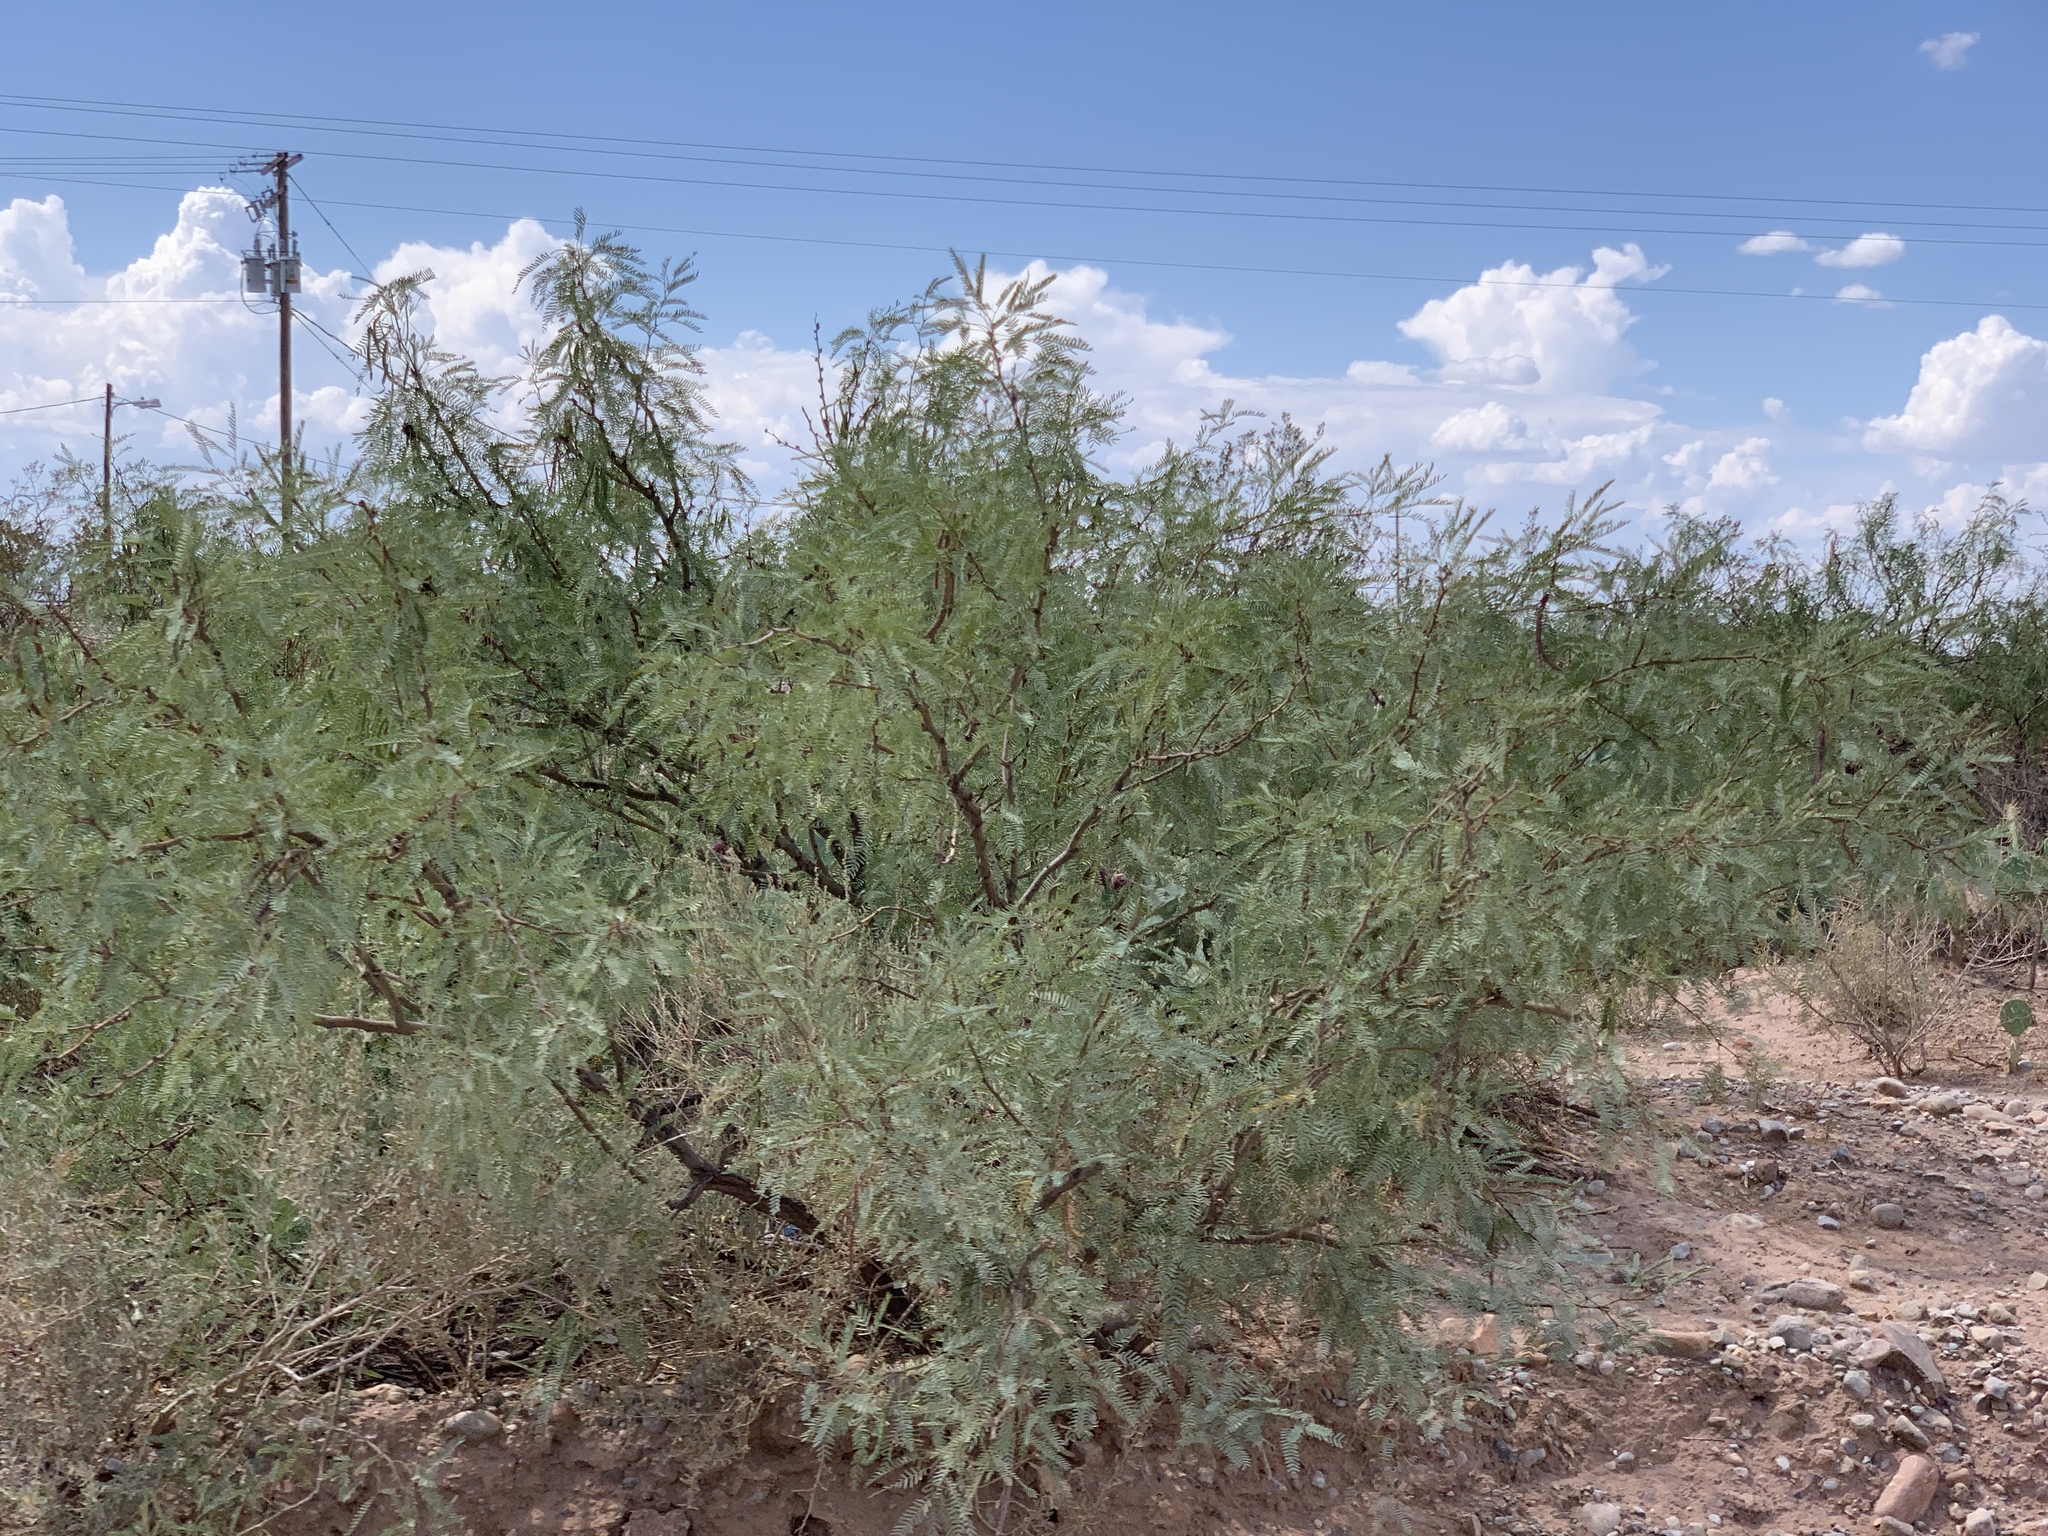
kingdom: Plantae
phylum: Tracheophyta
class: Magnoliopsida
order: Fabales
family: Fabaceae
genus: Prosopis
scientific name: Prosopis pubescens
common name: Screw-bean
